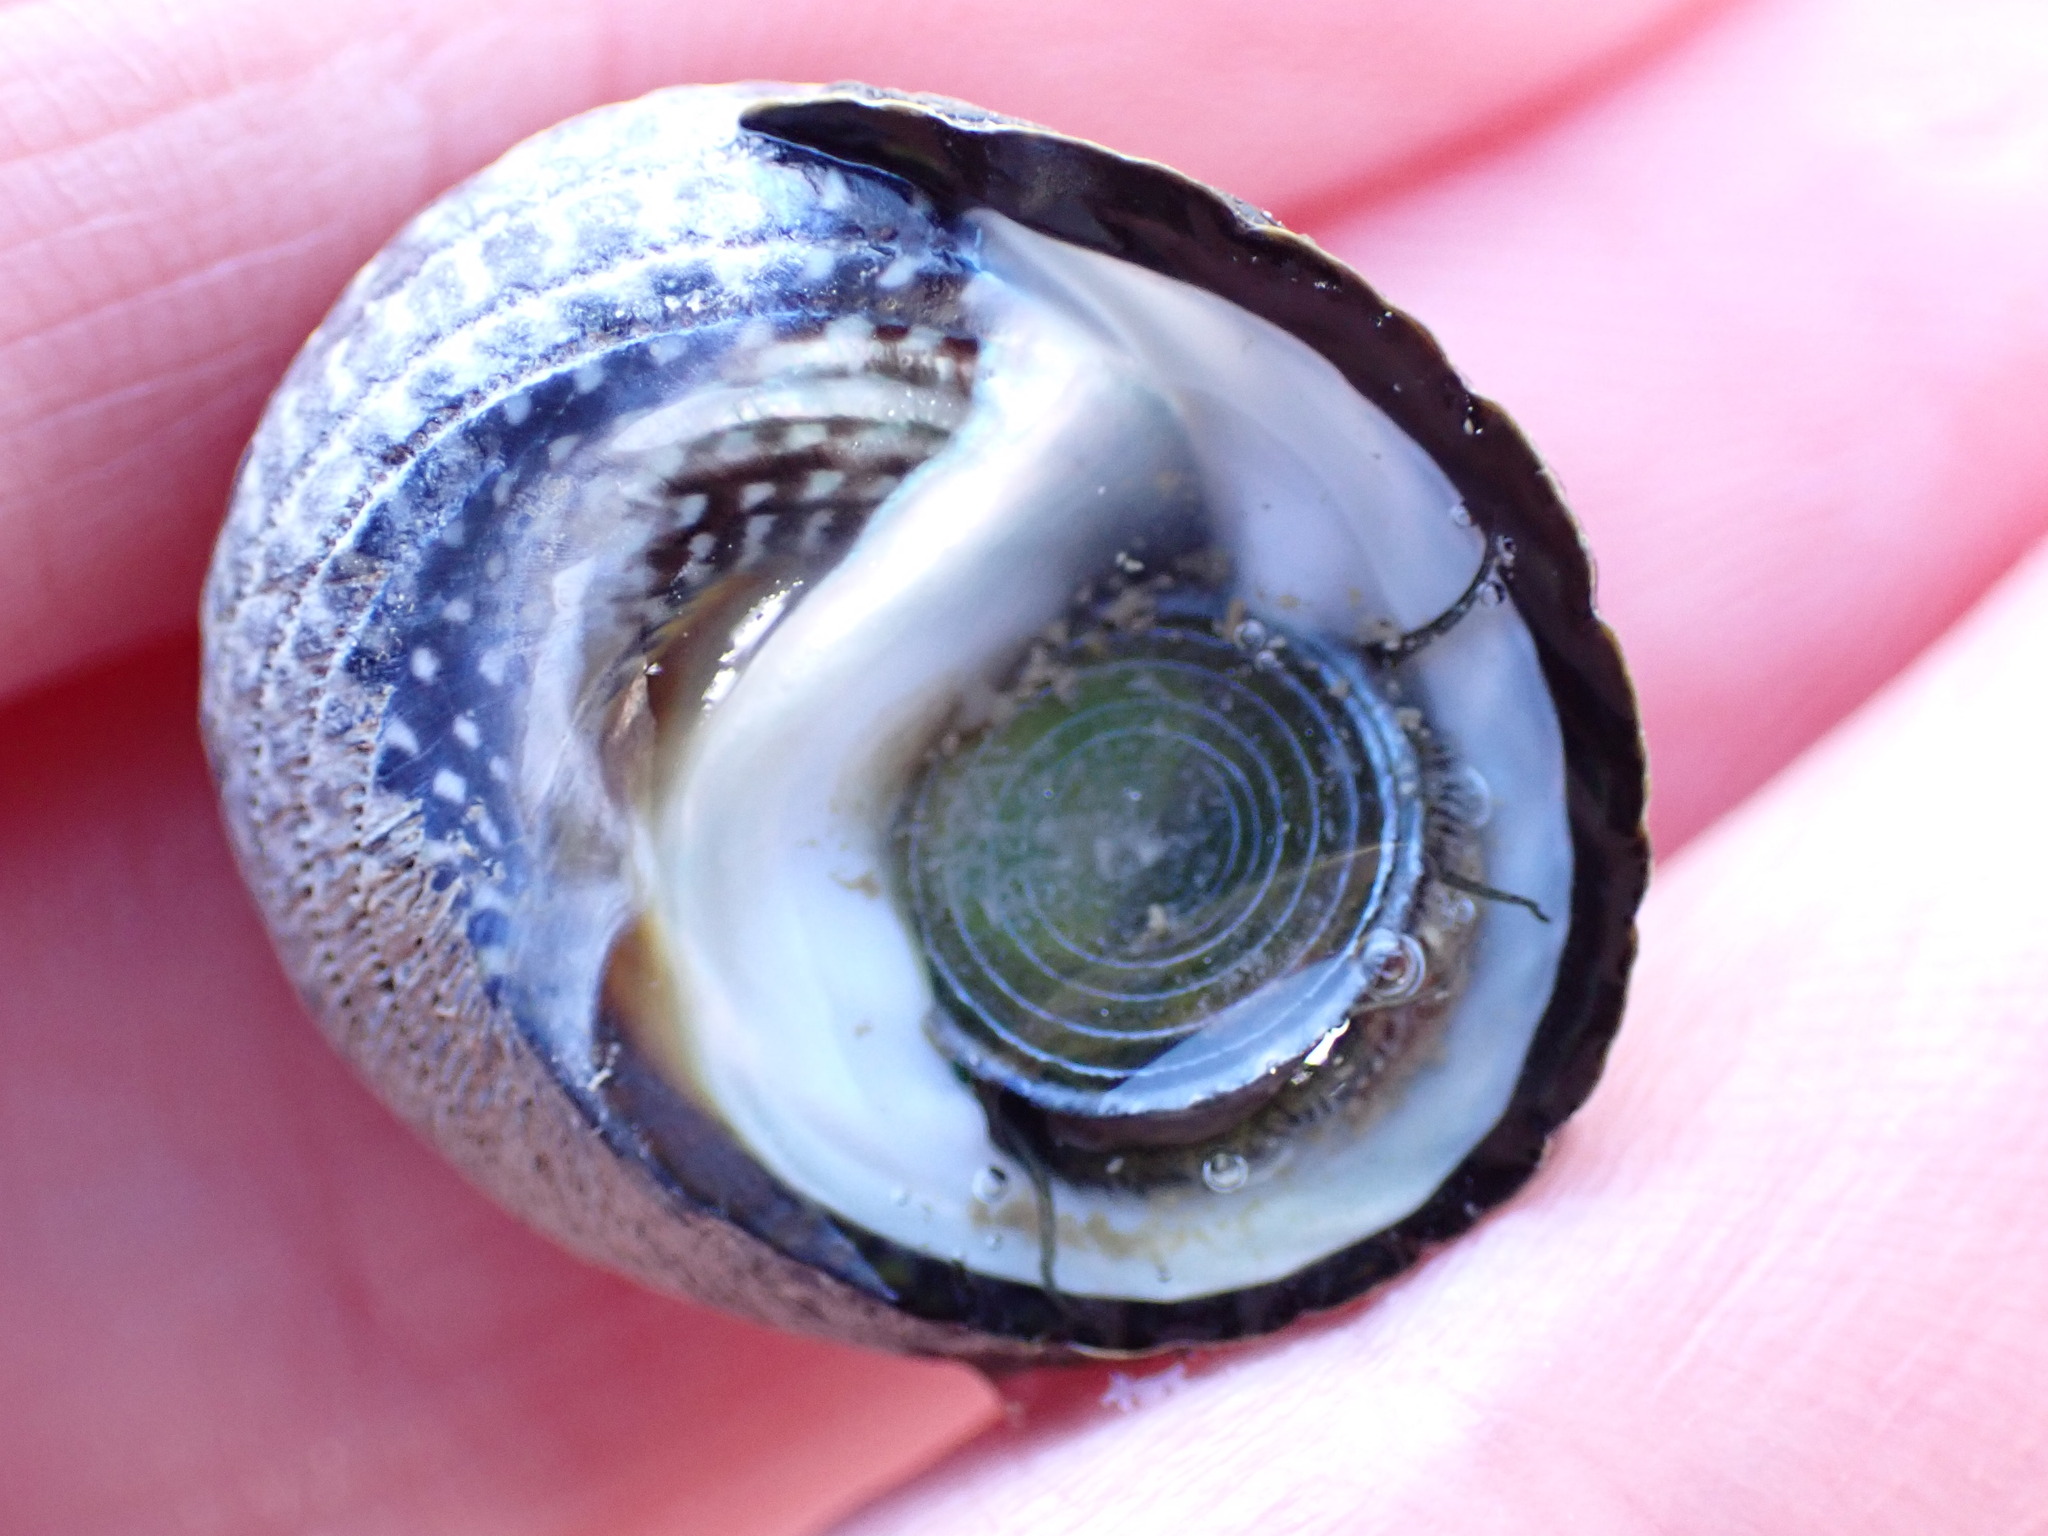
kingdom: Animalia
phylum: Mollusca
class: Gastropoda
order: Trochida
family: Trochidae
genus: Diloma
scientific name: Diloma aethiops
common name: Scorched monodont
